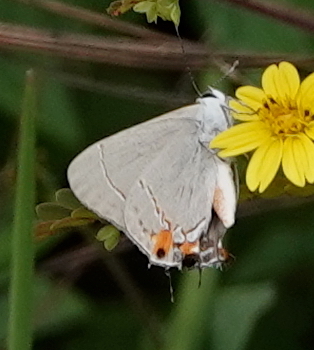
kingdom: Animalia
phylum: Arthropoda
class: Insecta
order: Lepidoptera
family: Lycaenidae
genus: Strymon
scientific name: Strymon melinus
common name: Gray hairstreak
